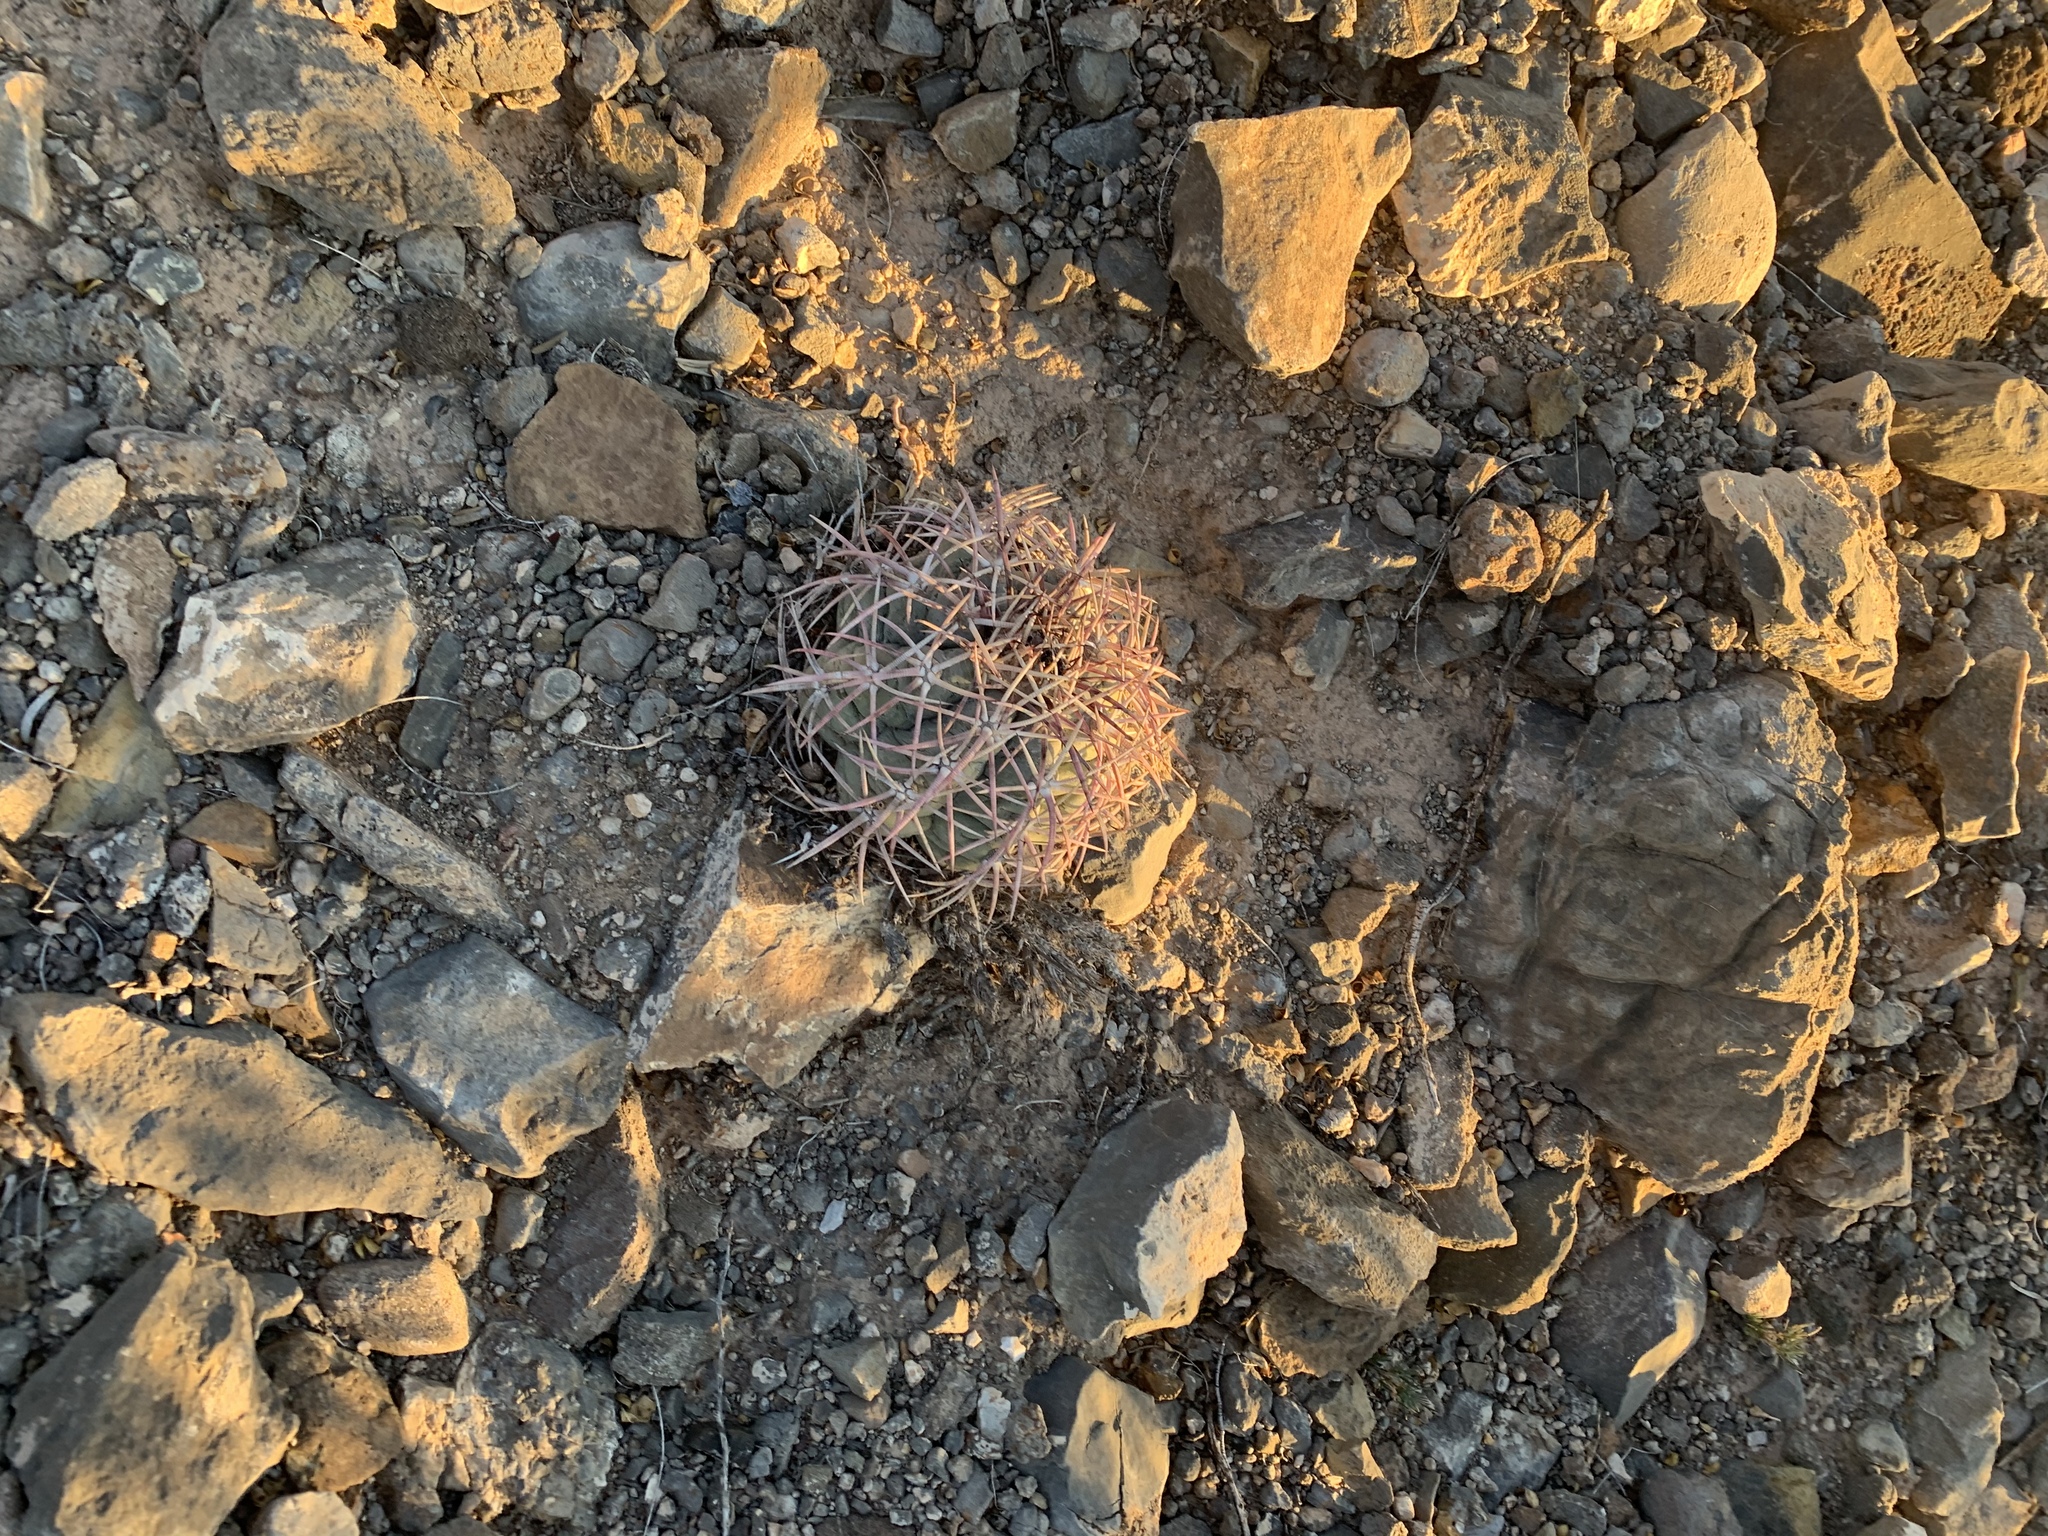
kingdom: Plantae
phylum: Tracheophyta
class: Magnoliopsida
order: Caryophyllales
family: Cactaceae
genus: Echinocactus
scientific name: Echinocactus horizonthalonius
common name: Devilshead
